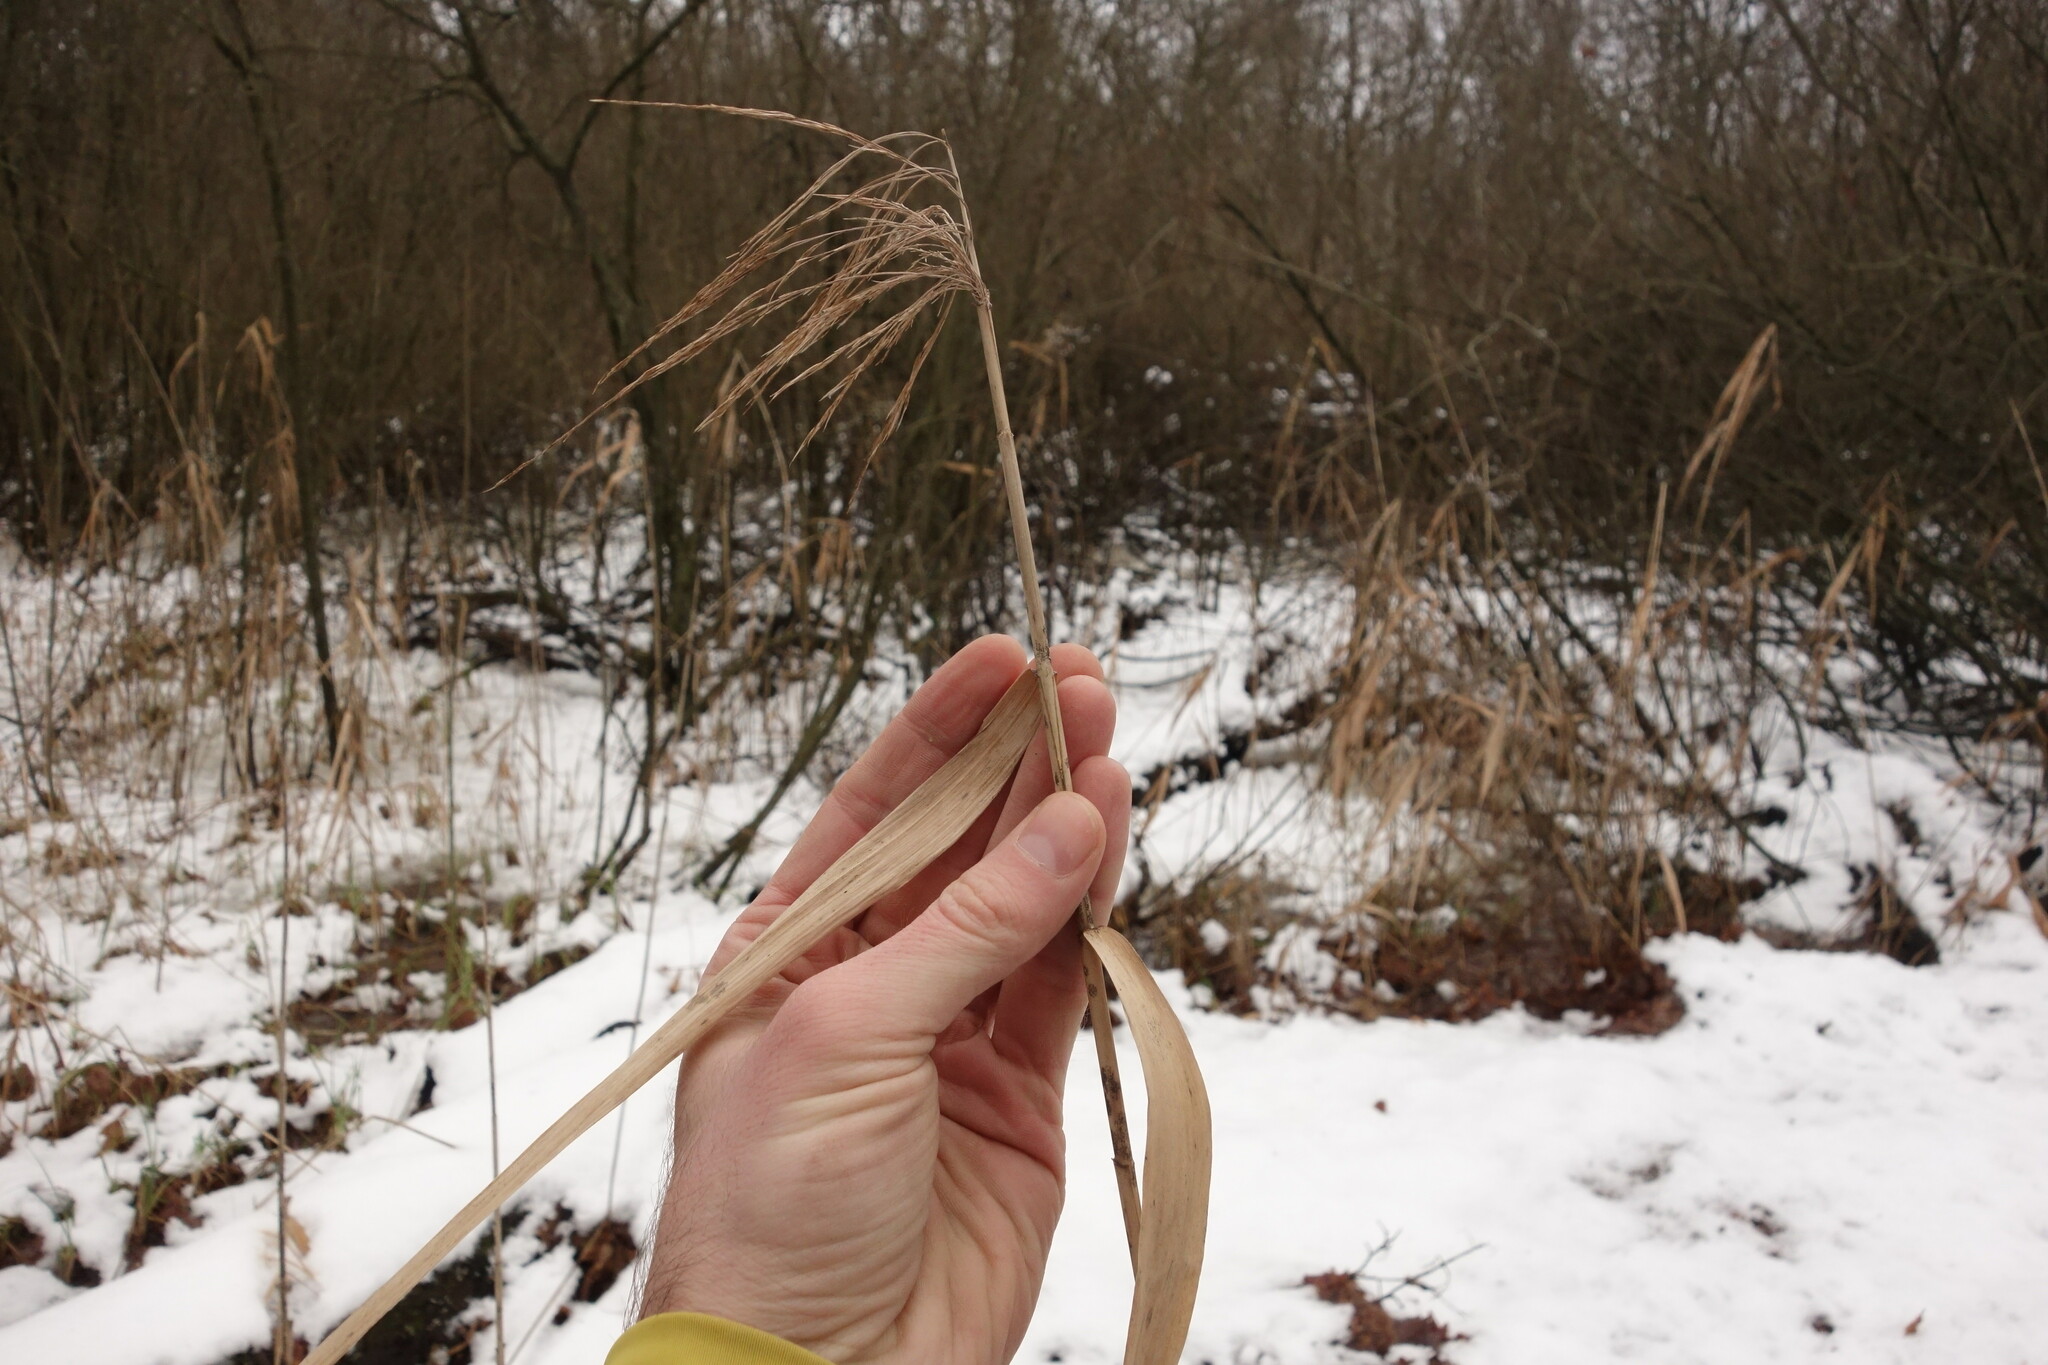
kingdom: Plantae
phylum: Tracheophyta
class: Liliopsida
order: Poales
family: Poaceae
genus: Phragmites
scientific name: Phragmites australis
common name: Common reed
